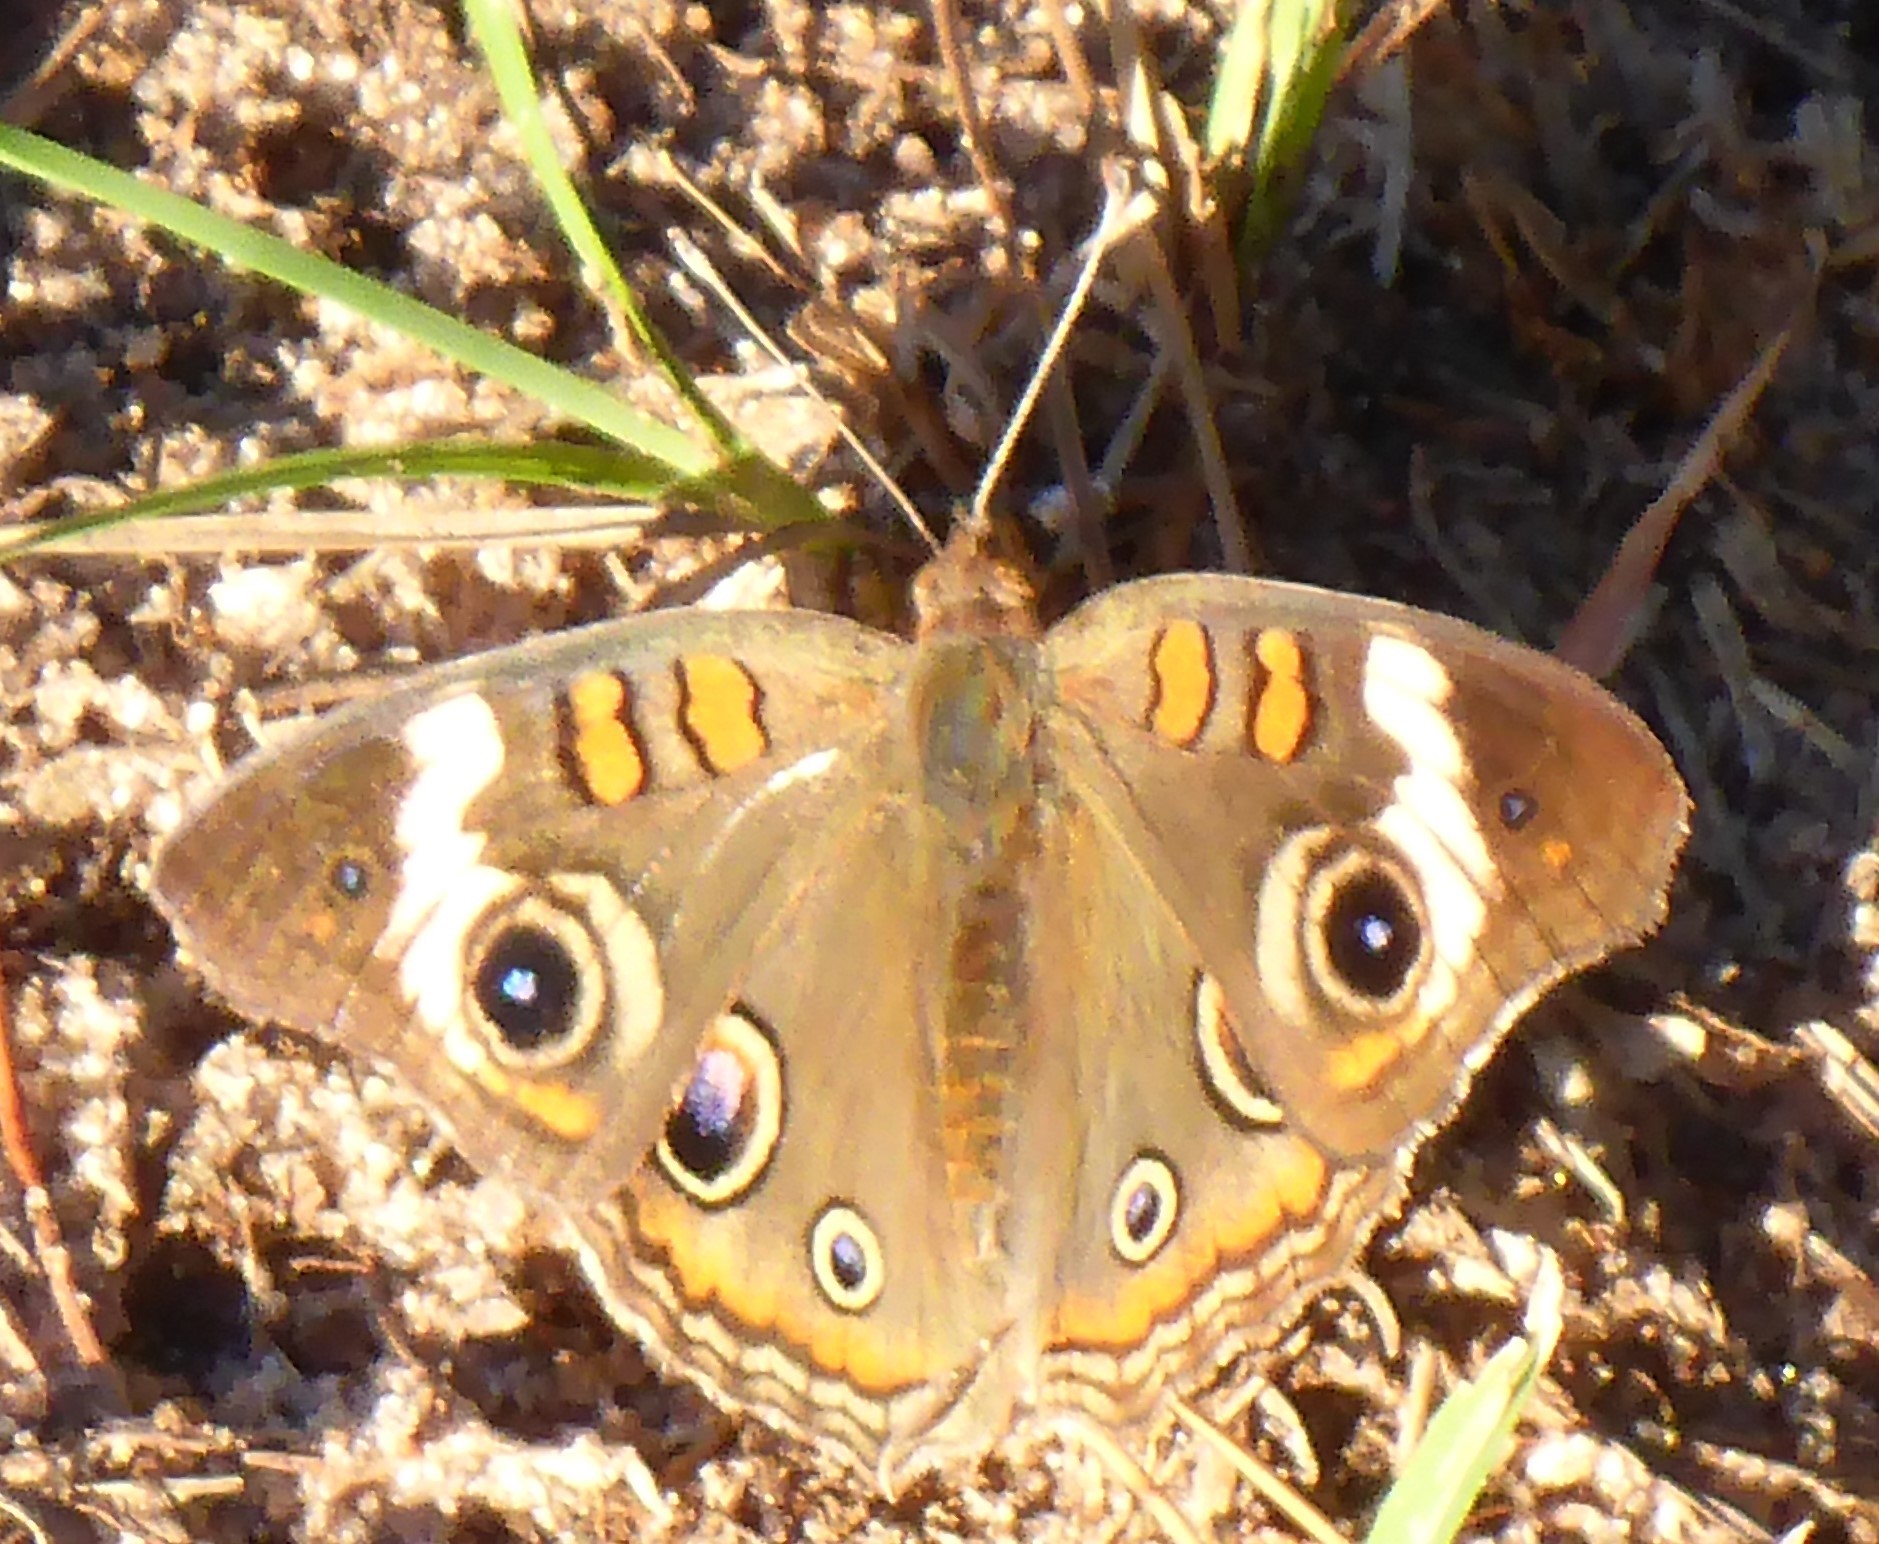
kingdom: Animalia
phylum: Arthropoda
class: Insecta
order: Lepidoptera
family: Nymphalidae
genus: Junonia
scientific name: Junonia coenia
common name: Common buckeye
